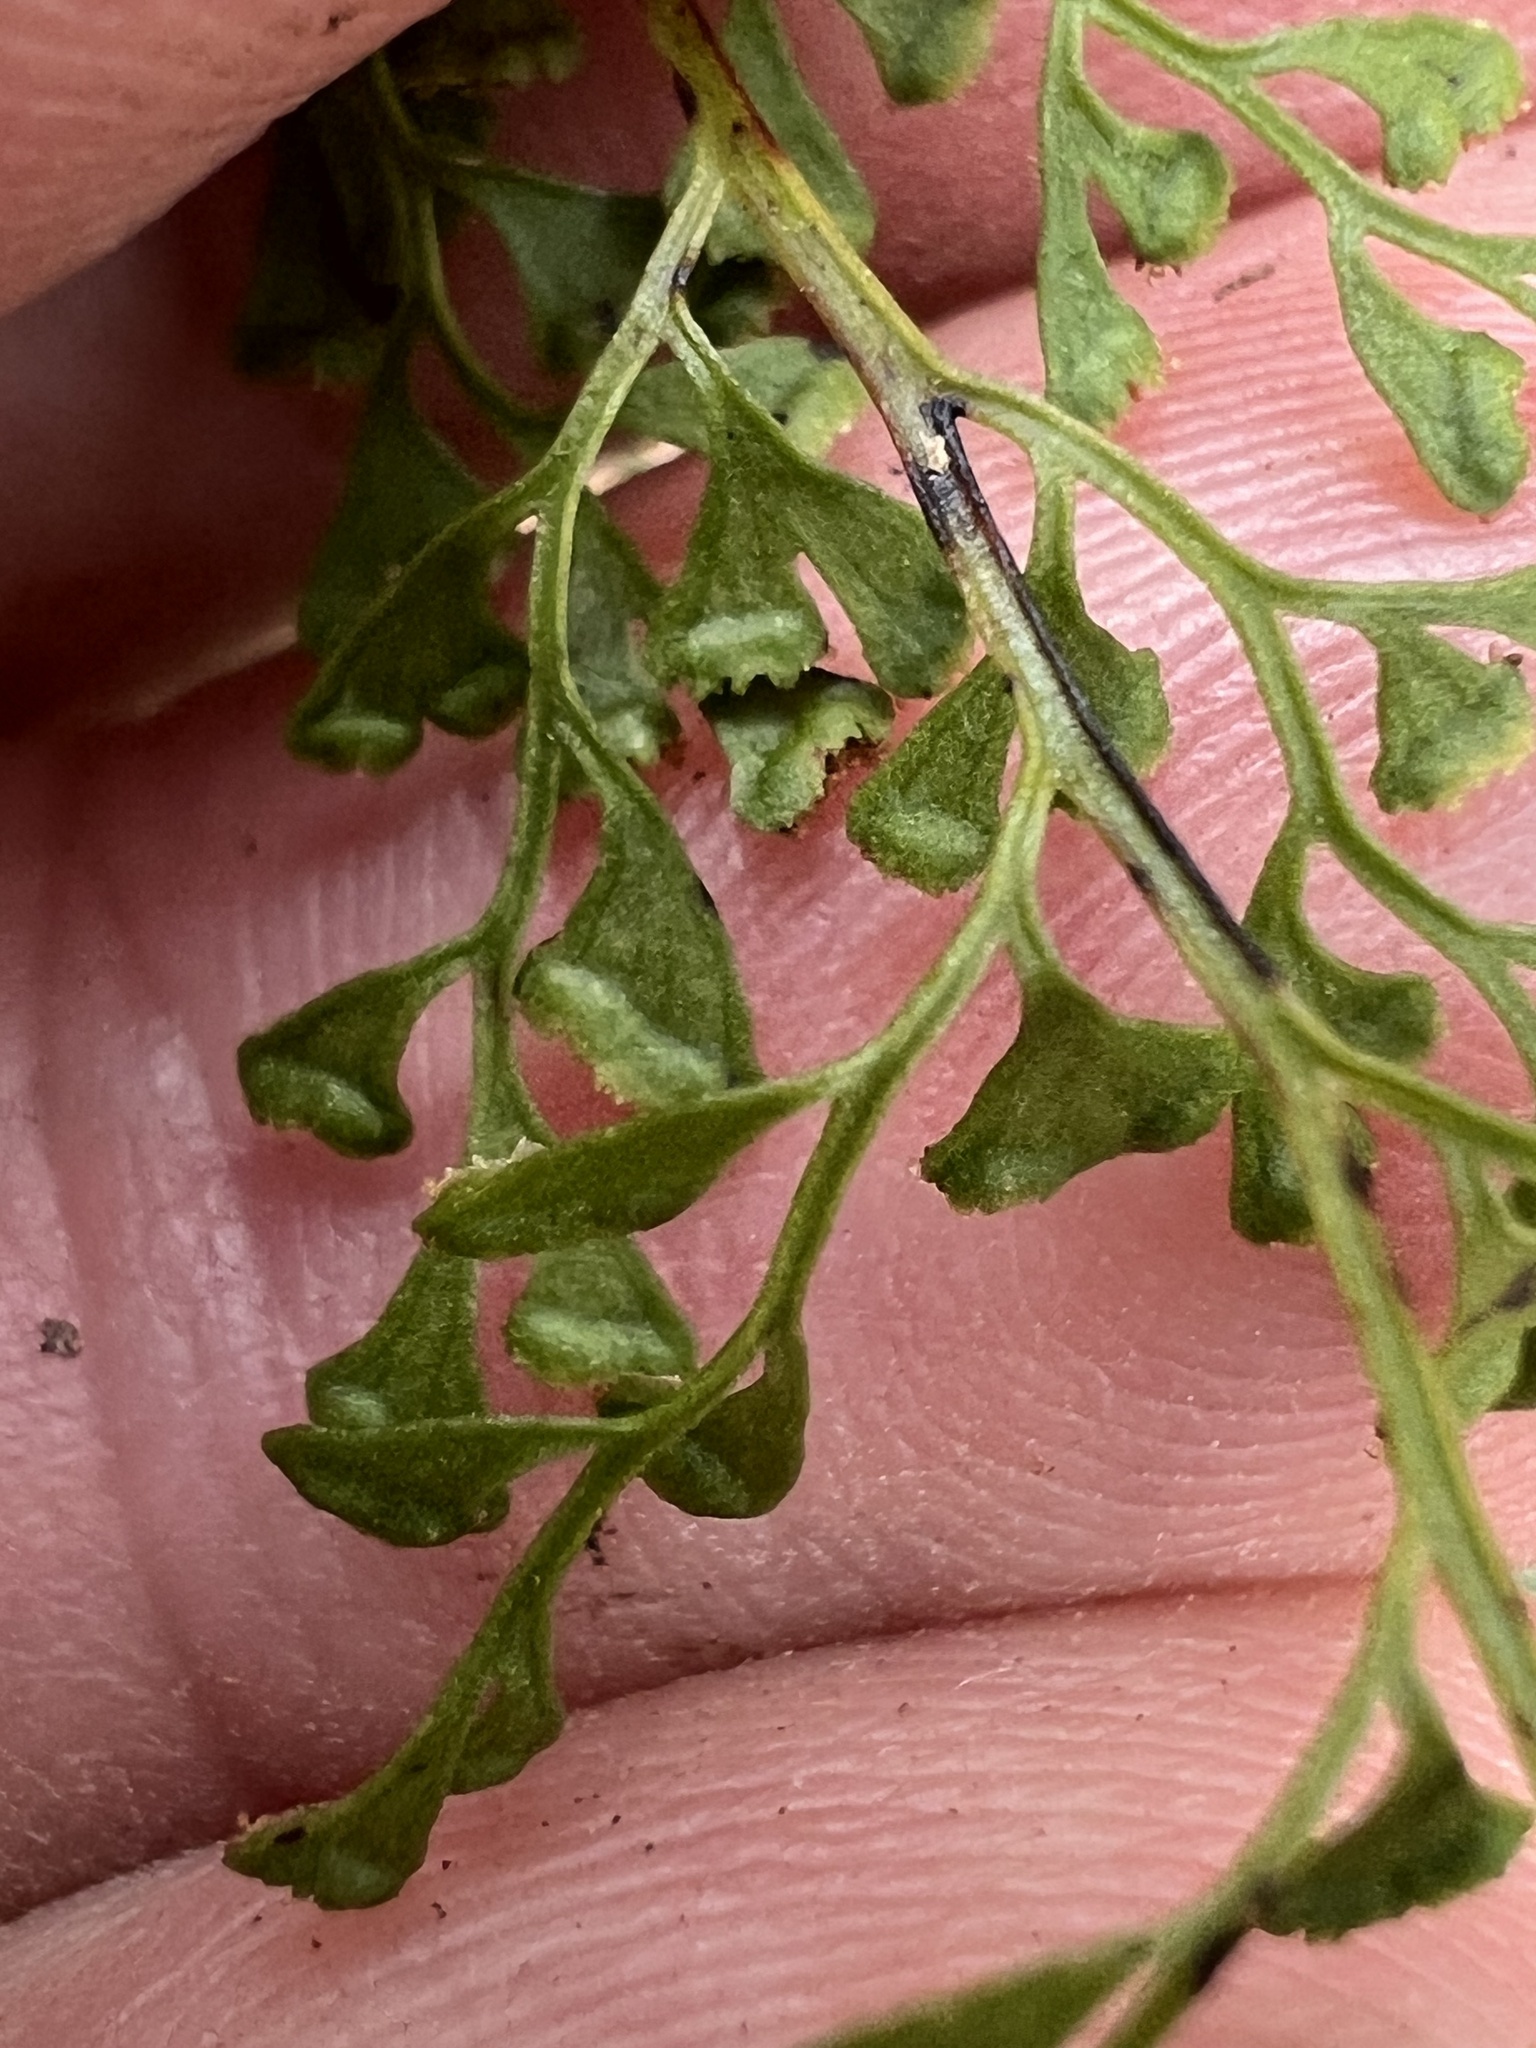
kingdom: Plantae
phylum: Tracheophyta
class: Polypodiopsida
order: Polypodiales
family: Lindsaeaceae
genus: Lindsaea
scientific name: Lindsaea microphylla
